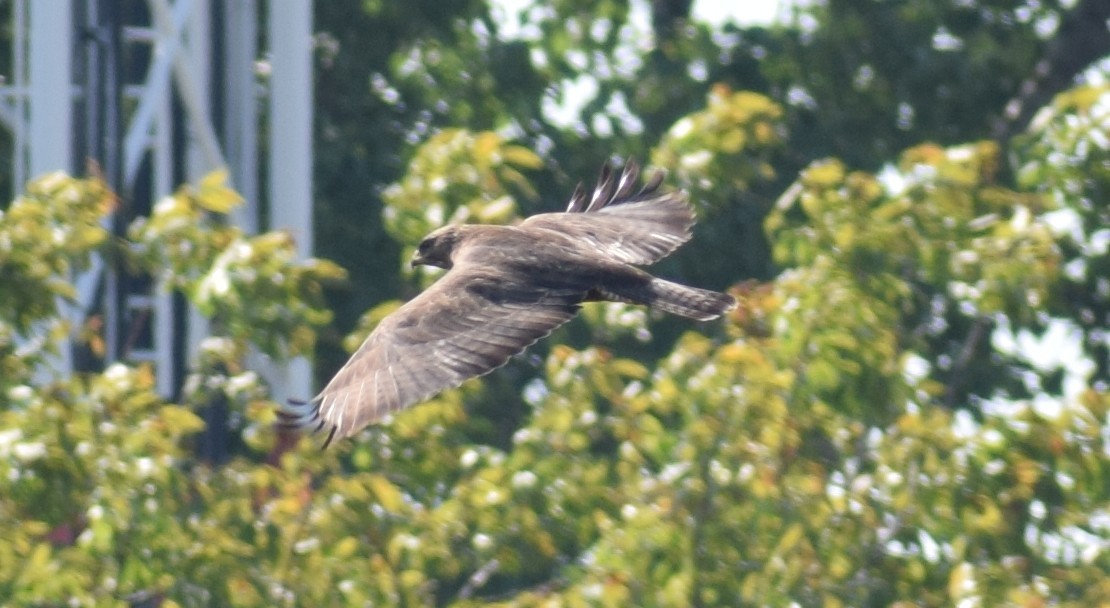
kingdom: Animalia
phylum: Chordata
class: Aves
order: Accipitriformes
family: Accipitridae
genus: Buteo
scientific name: Buteo buteo
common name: Common buzzard
